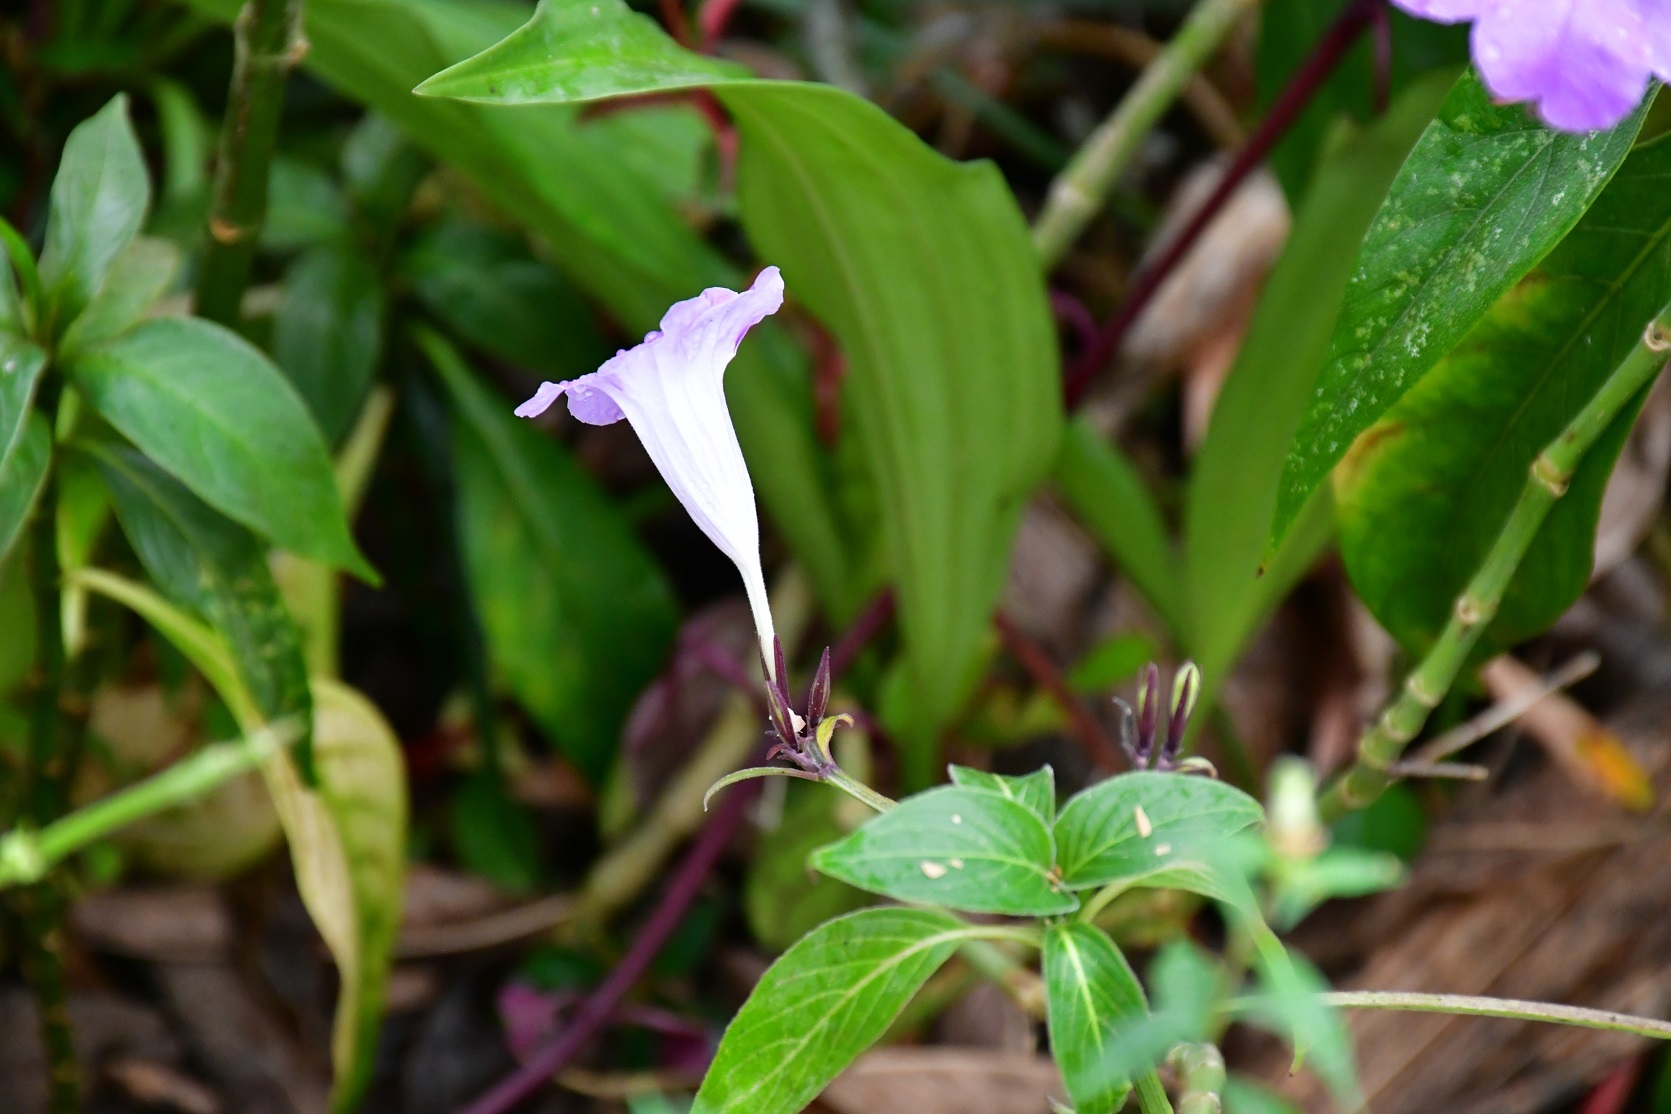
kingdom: Plantae
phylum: Tracheophyta
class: Magnoliopsida
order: Lamiales
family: Acanthaceae
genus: Ruellia
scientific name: Ruellia breedlovei
